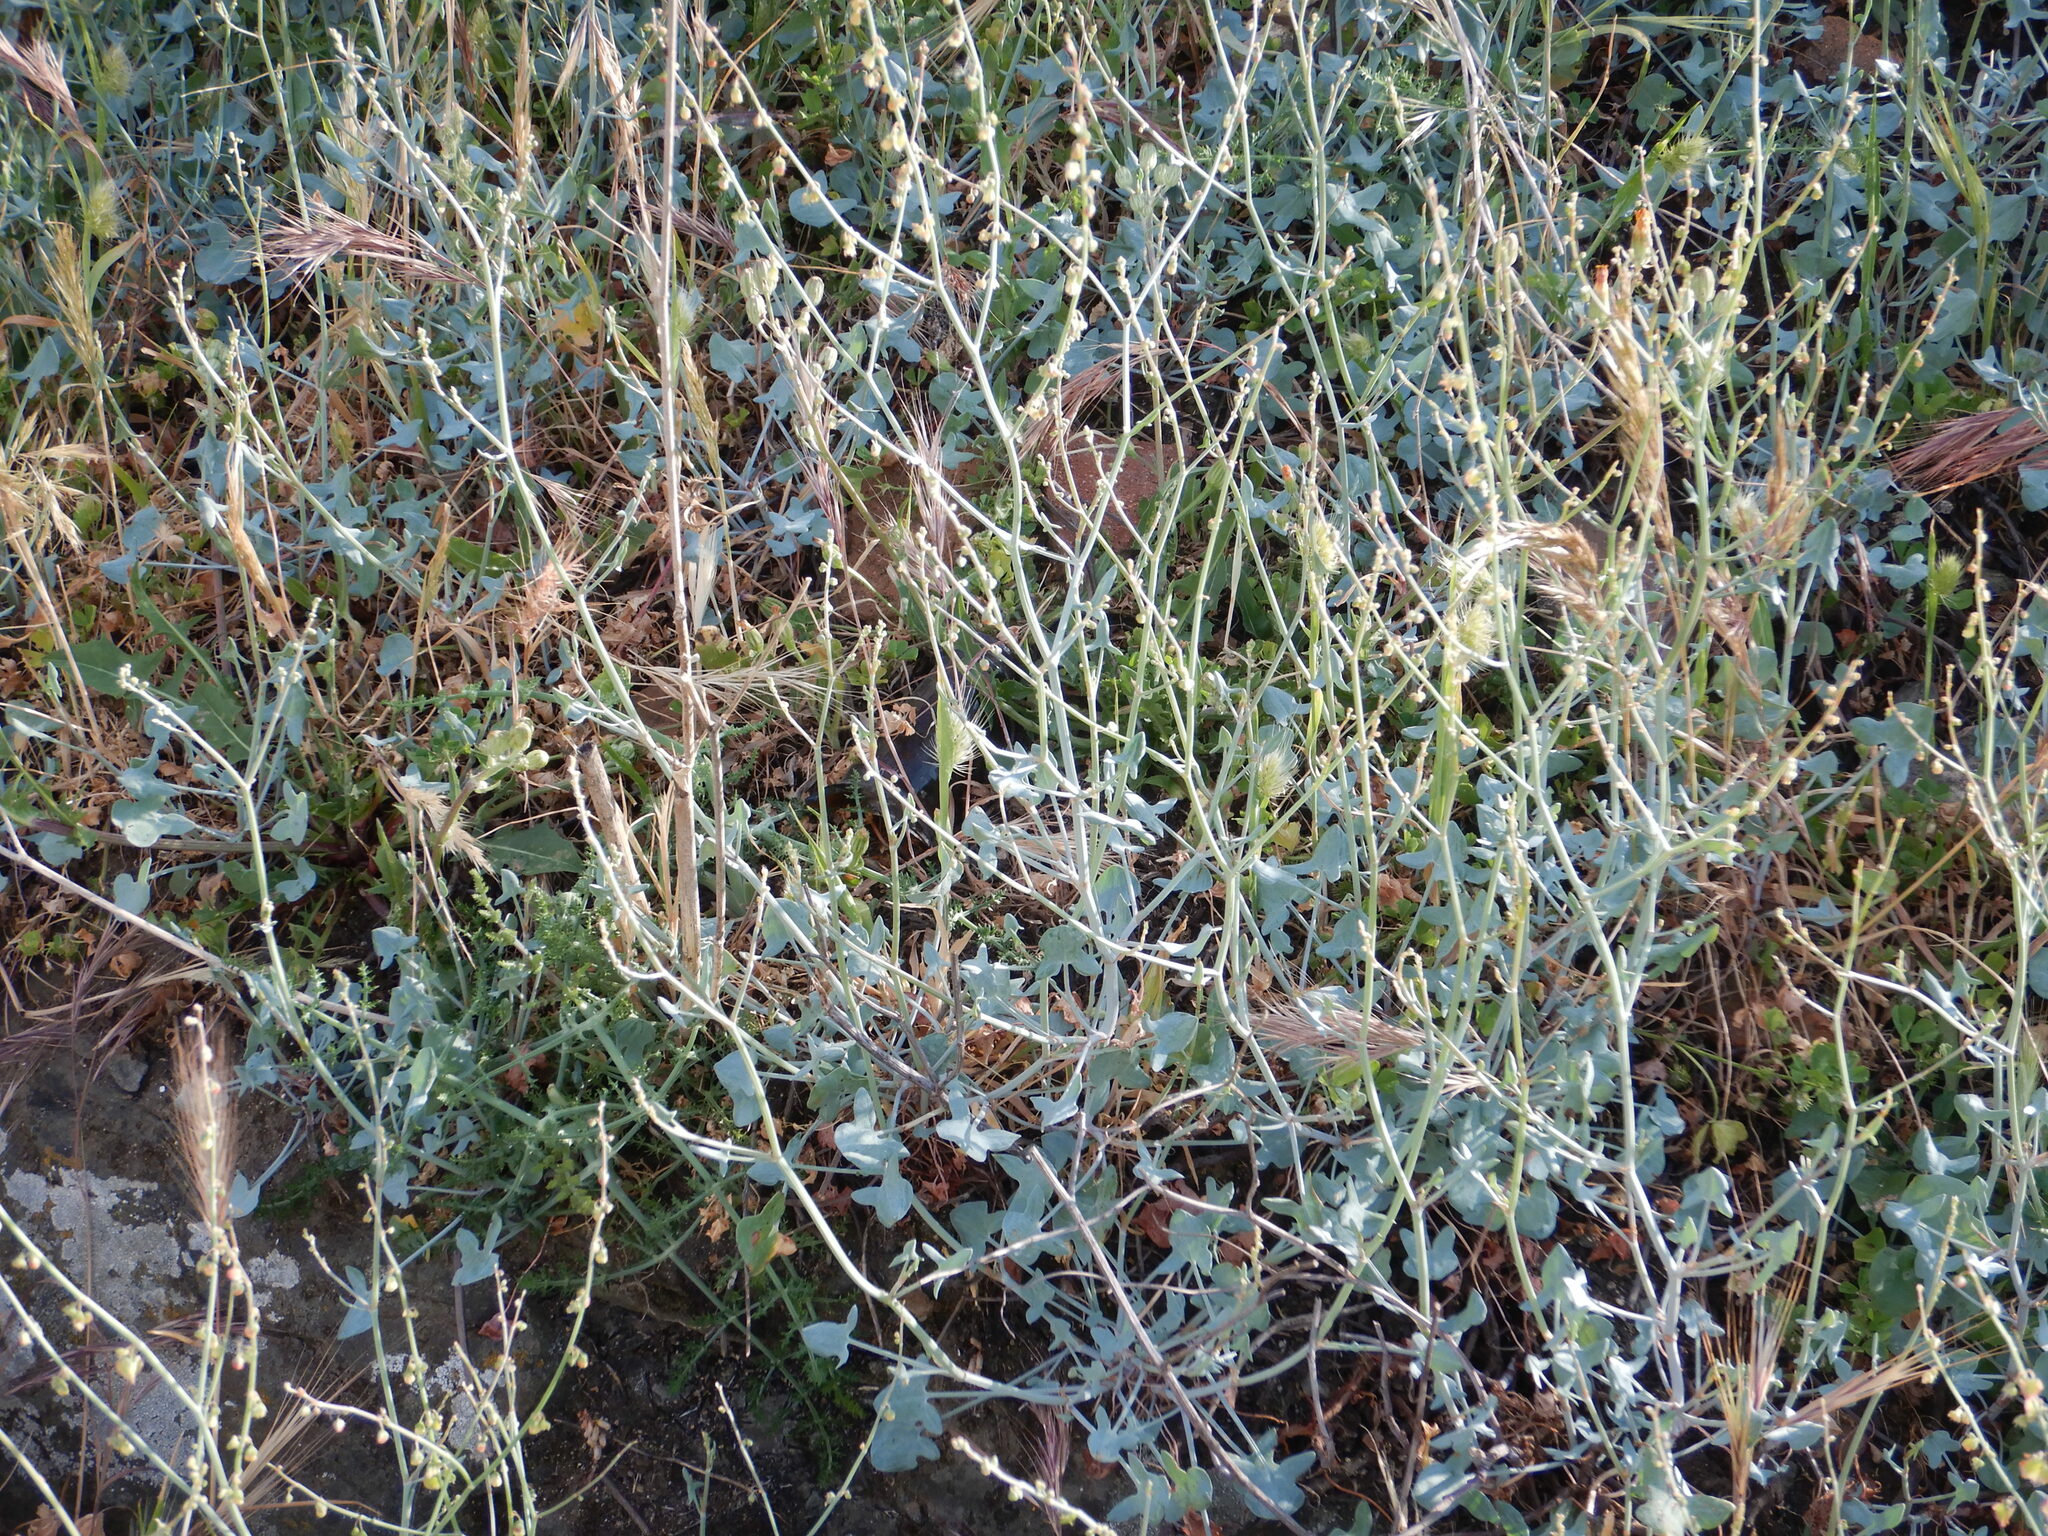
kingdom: Plantae
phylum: Tracheophyta
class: Magnoliopsida
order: Caryophyllales
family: Polygonaceae
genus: Rumex
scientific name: Rumex induratus
